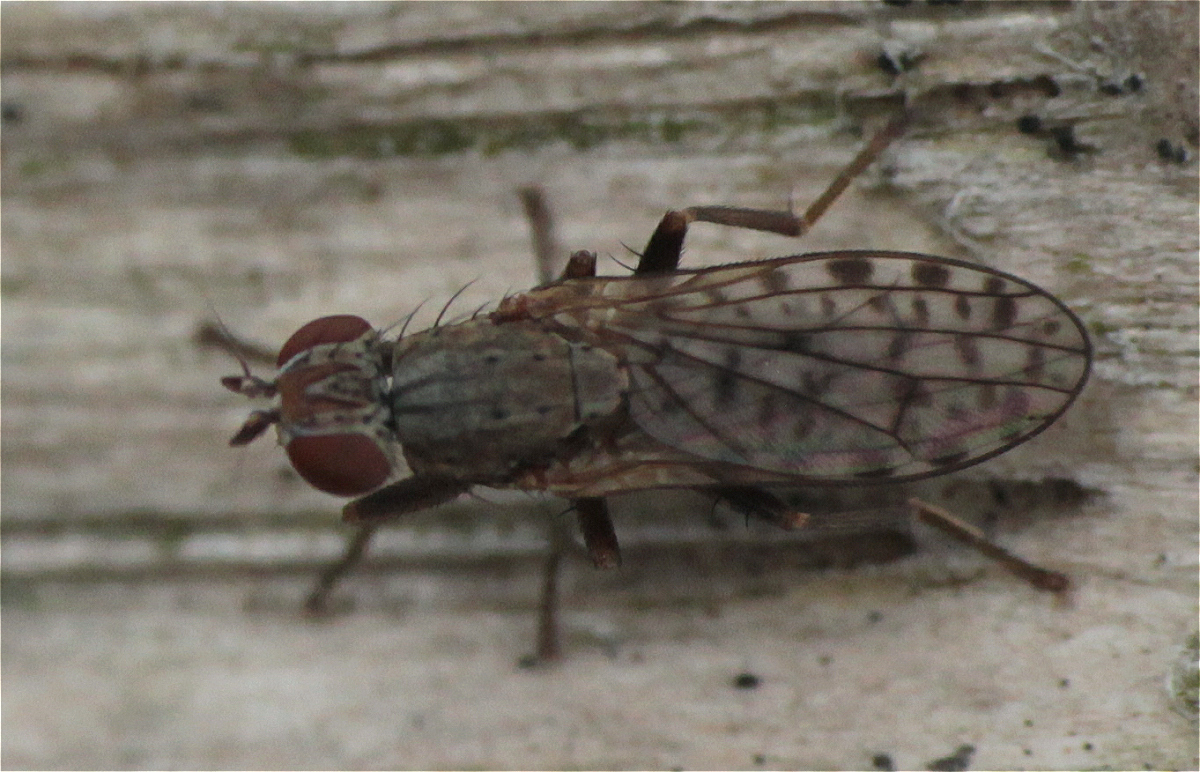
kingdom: Animalia
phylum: Arthropoda
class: Insecta
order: Diptera
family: Sciomyzidae
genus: Pherbellia
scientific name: Pherbellia schoenherri
